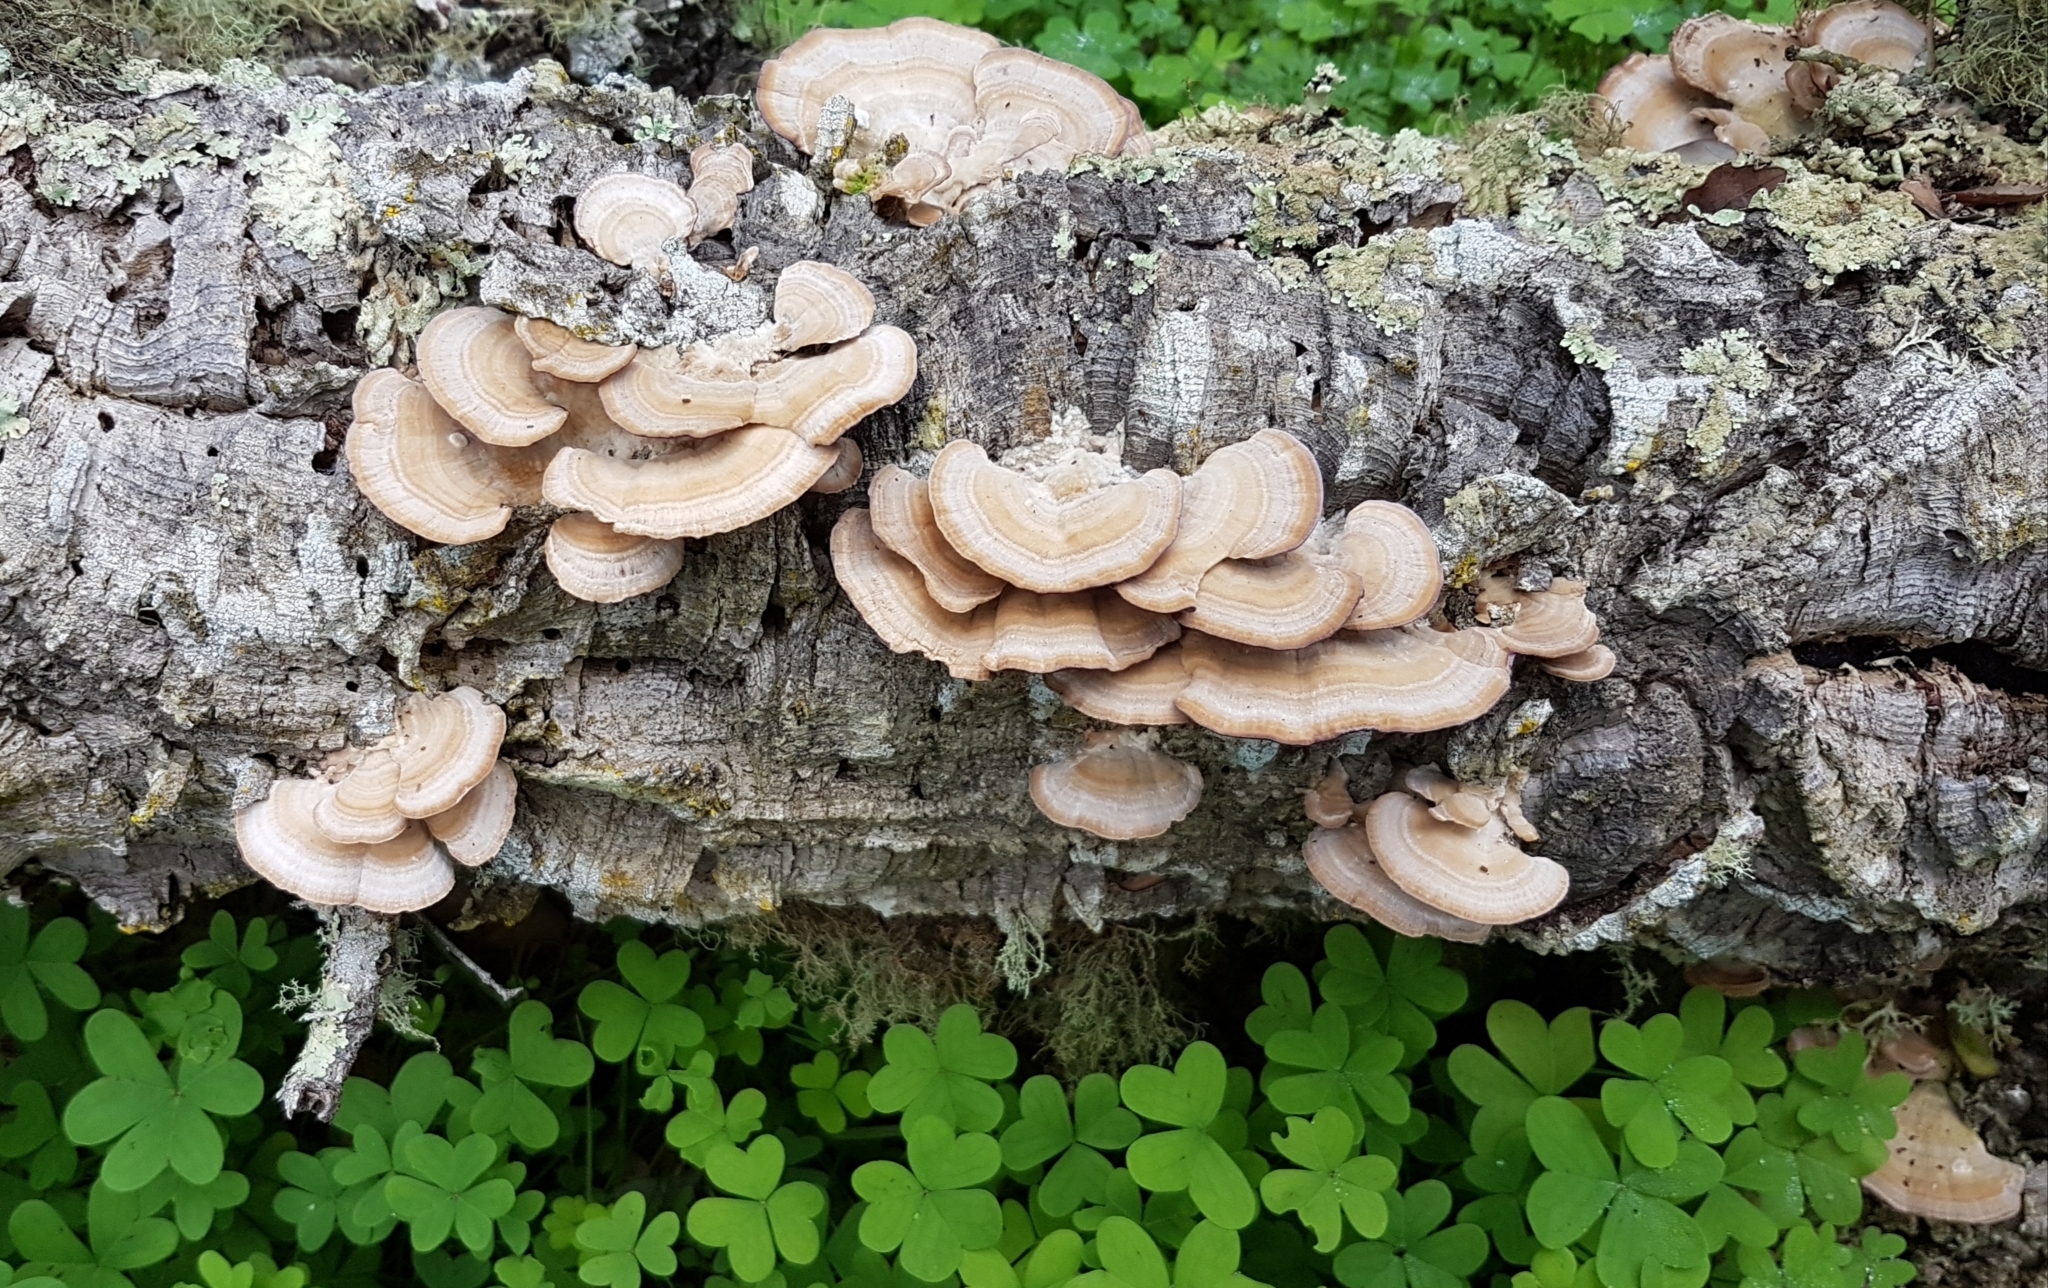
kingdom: Fungi
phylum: Basidiomycota
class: Agaricomycetes
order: Hymenochaetales
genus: Trichaptum
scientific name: Trichaptum biforme
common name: Violet-toothed polypore
